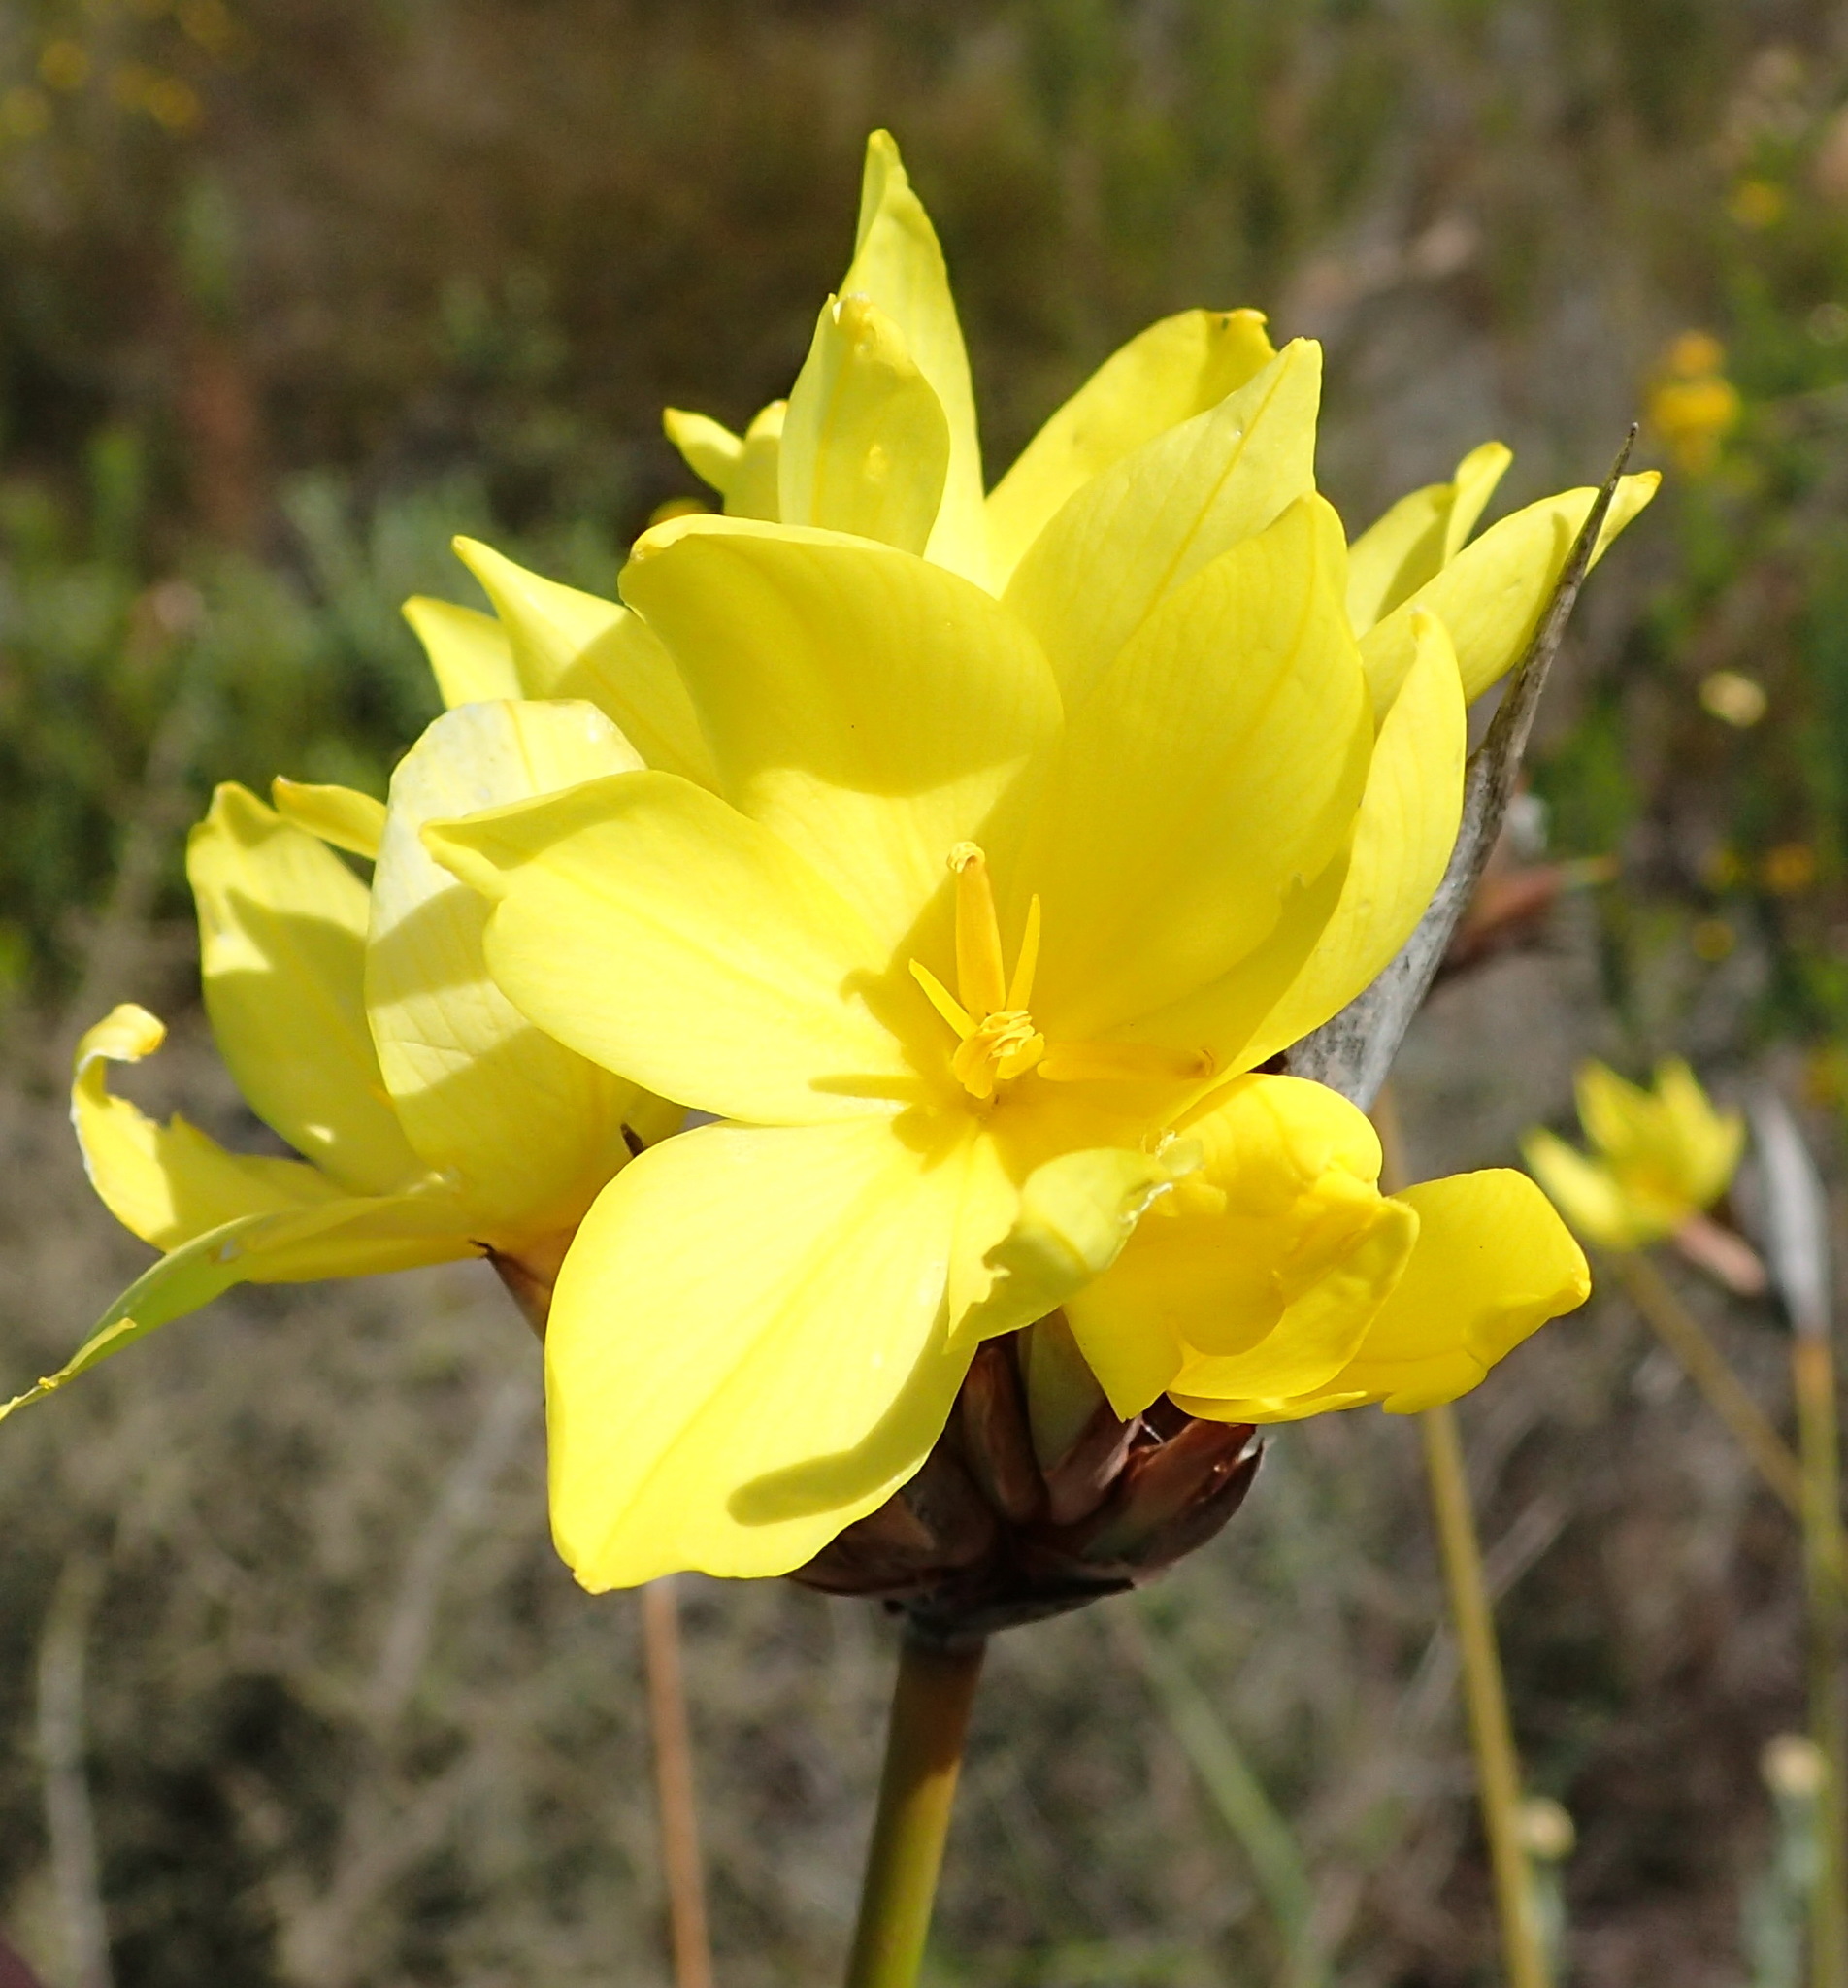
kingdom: Plantae
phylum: Tracheophyta
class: Liliopsida
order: Asparagales
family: Iridaceae
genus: Bobartia
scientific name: Bobartia macrospatha
